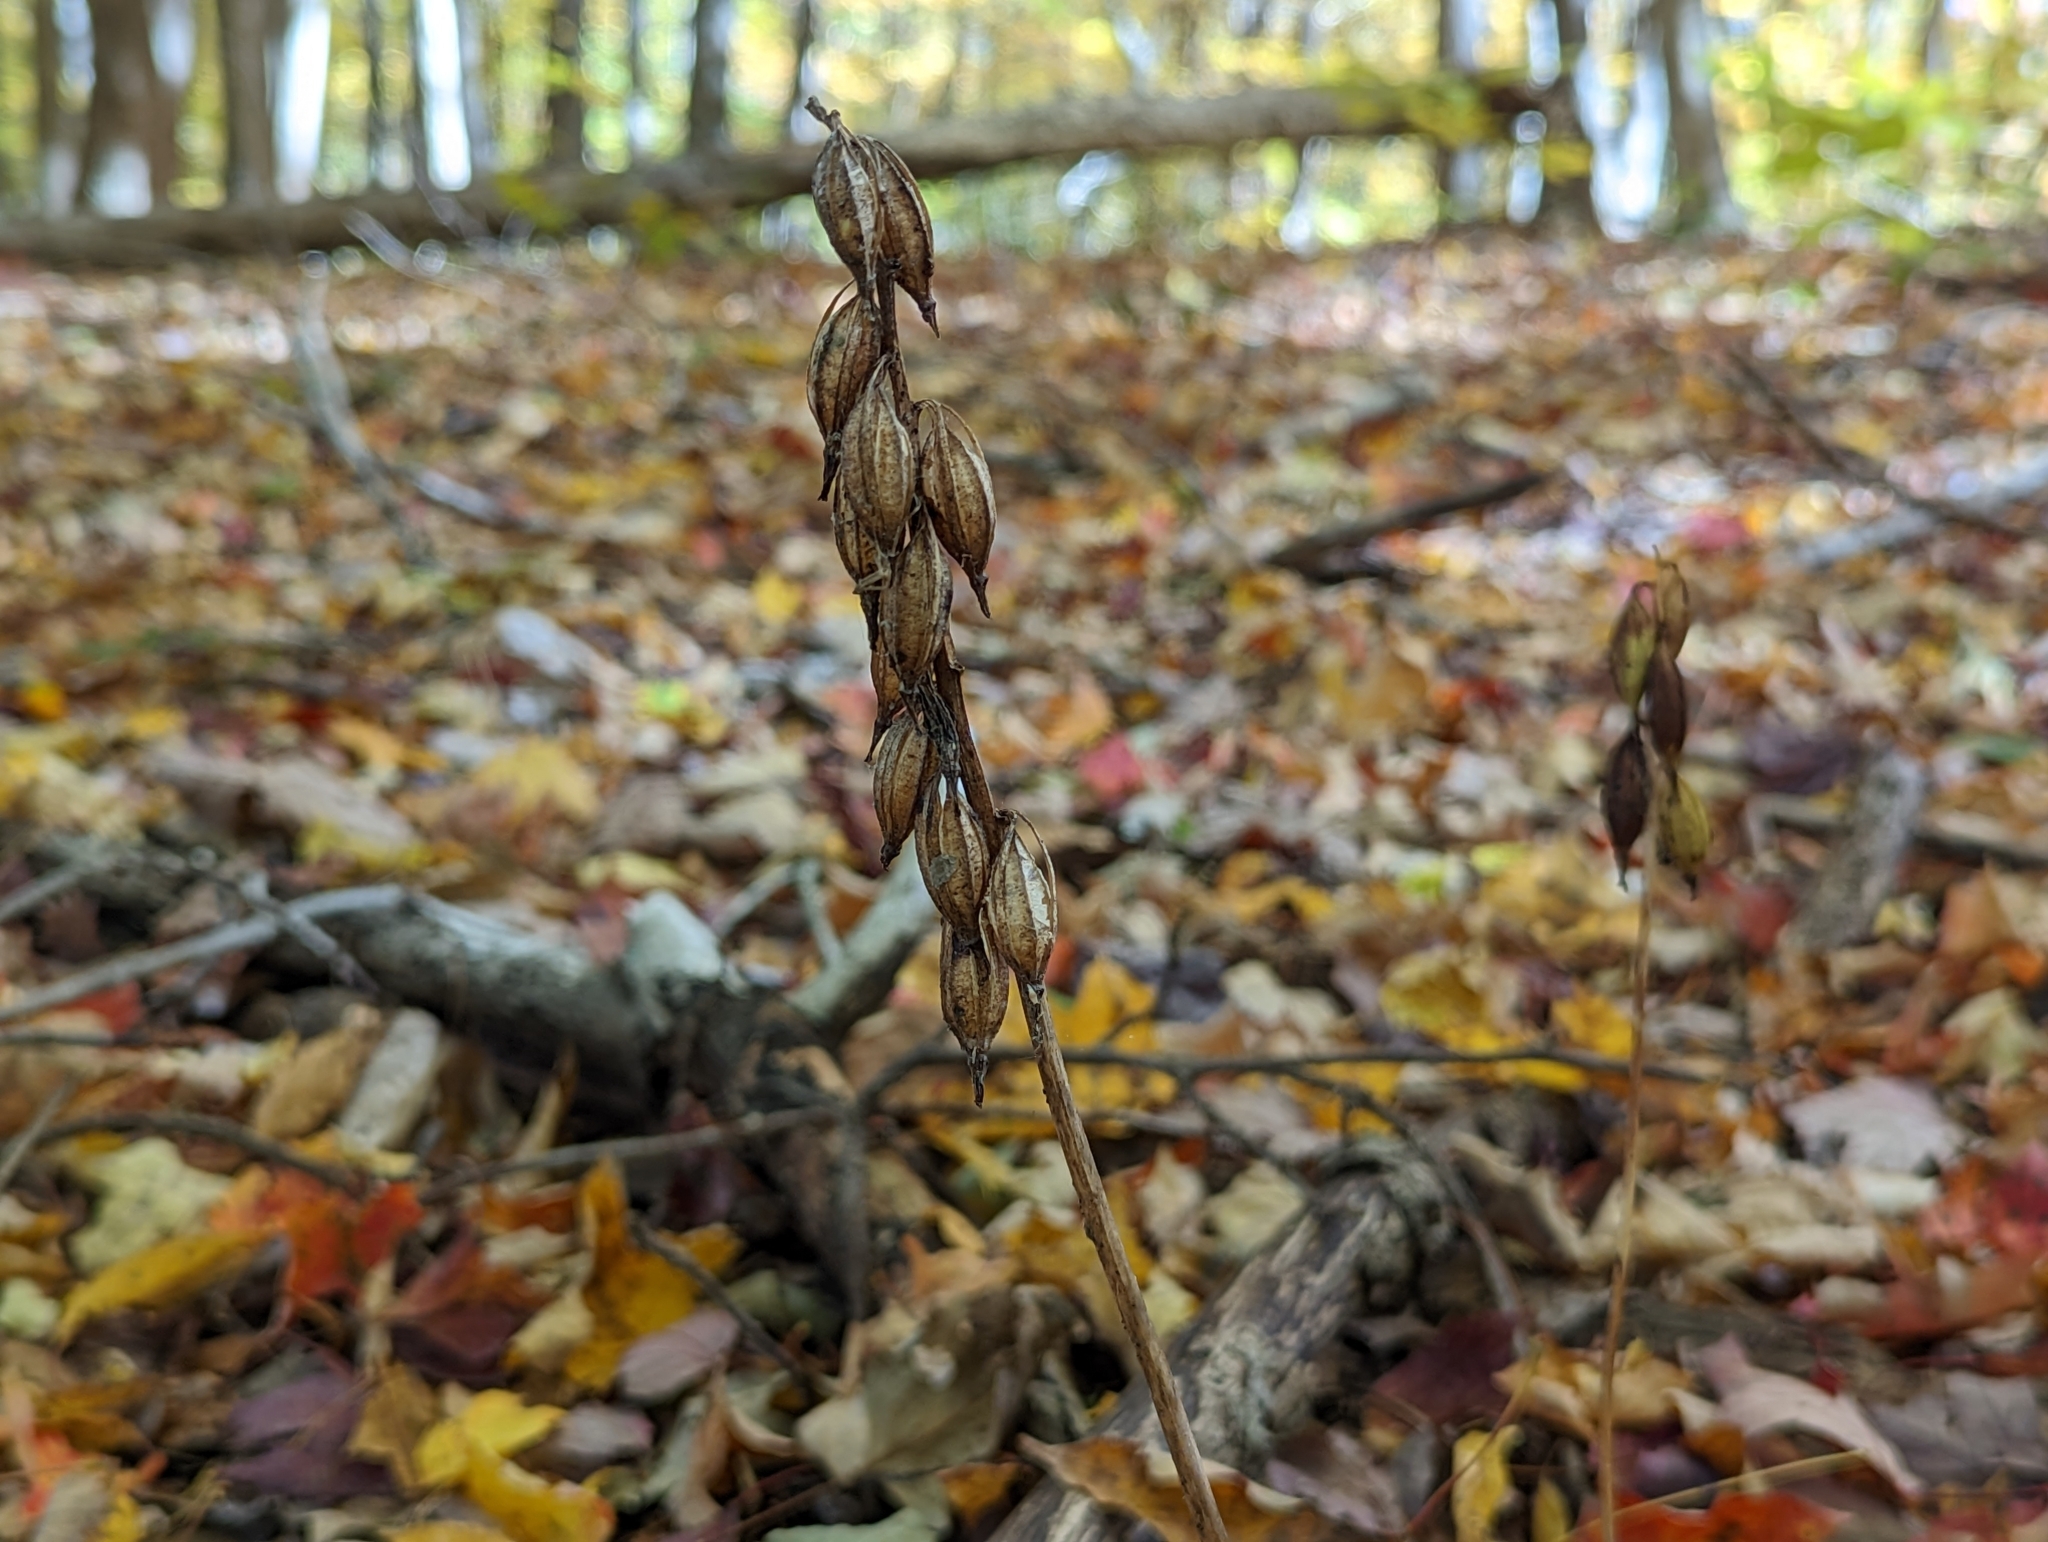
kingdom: Plantae
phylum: Tracheophyta
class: Liliopsida
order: Asparagales
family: Orchidaceae
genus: Aplectrum
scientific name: Aplectrum hyemale
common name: Adam-and-eve
